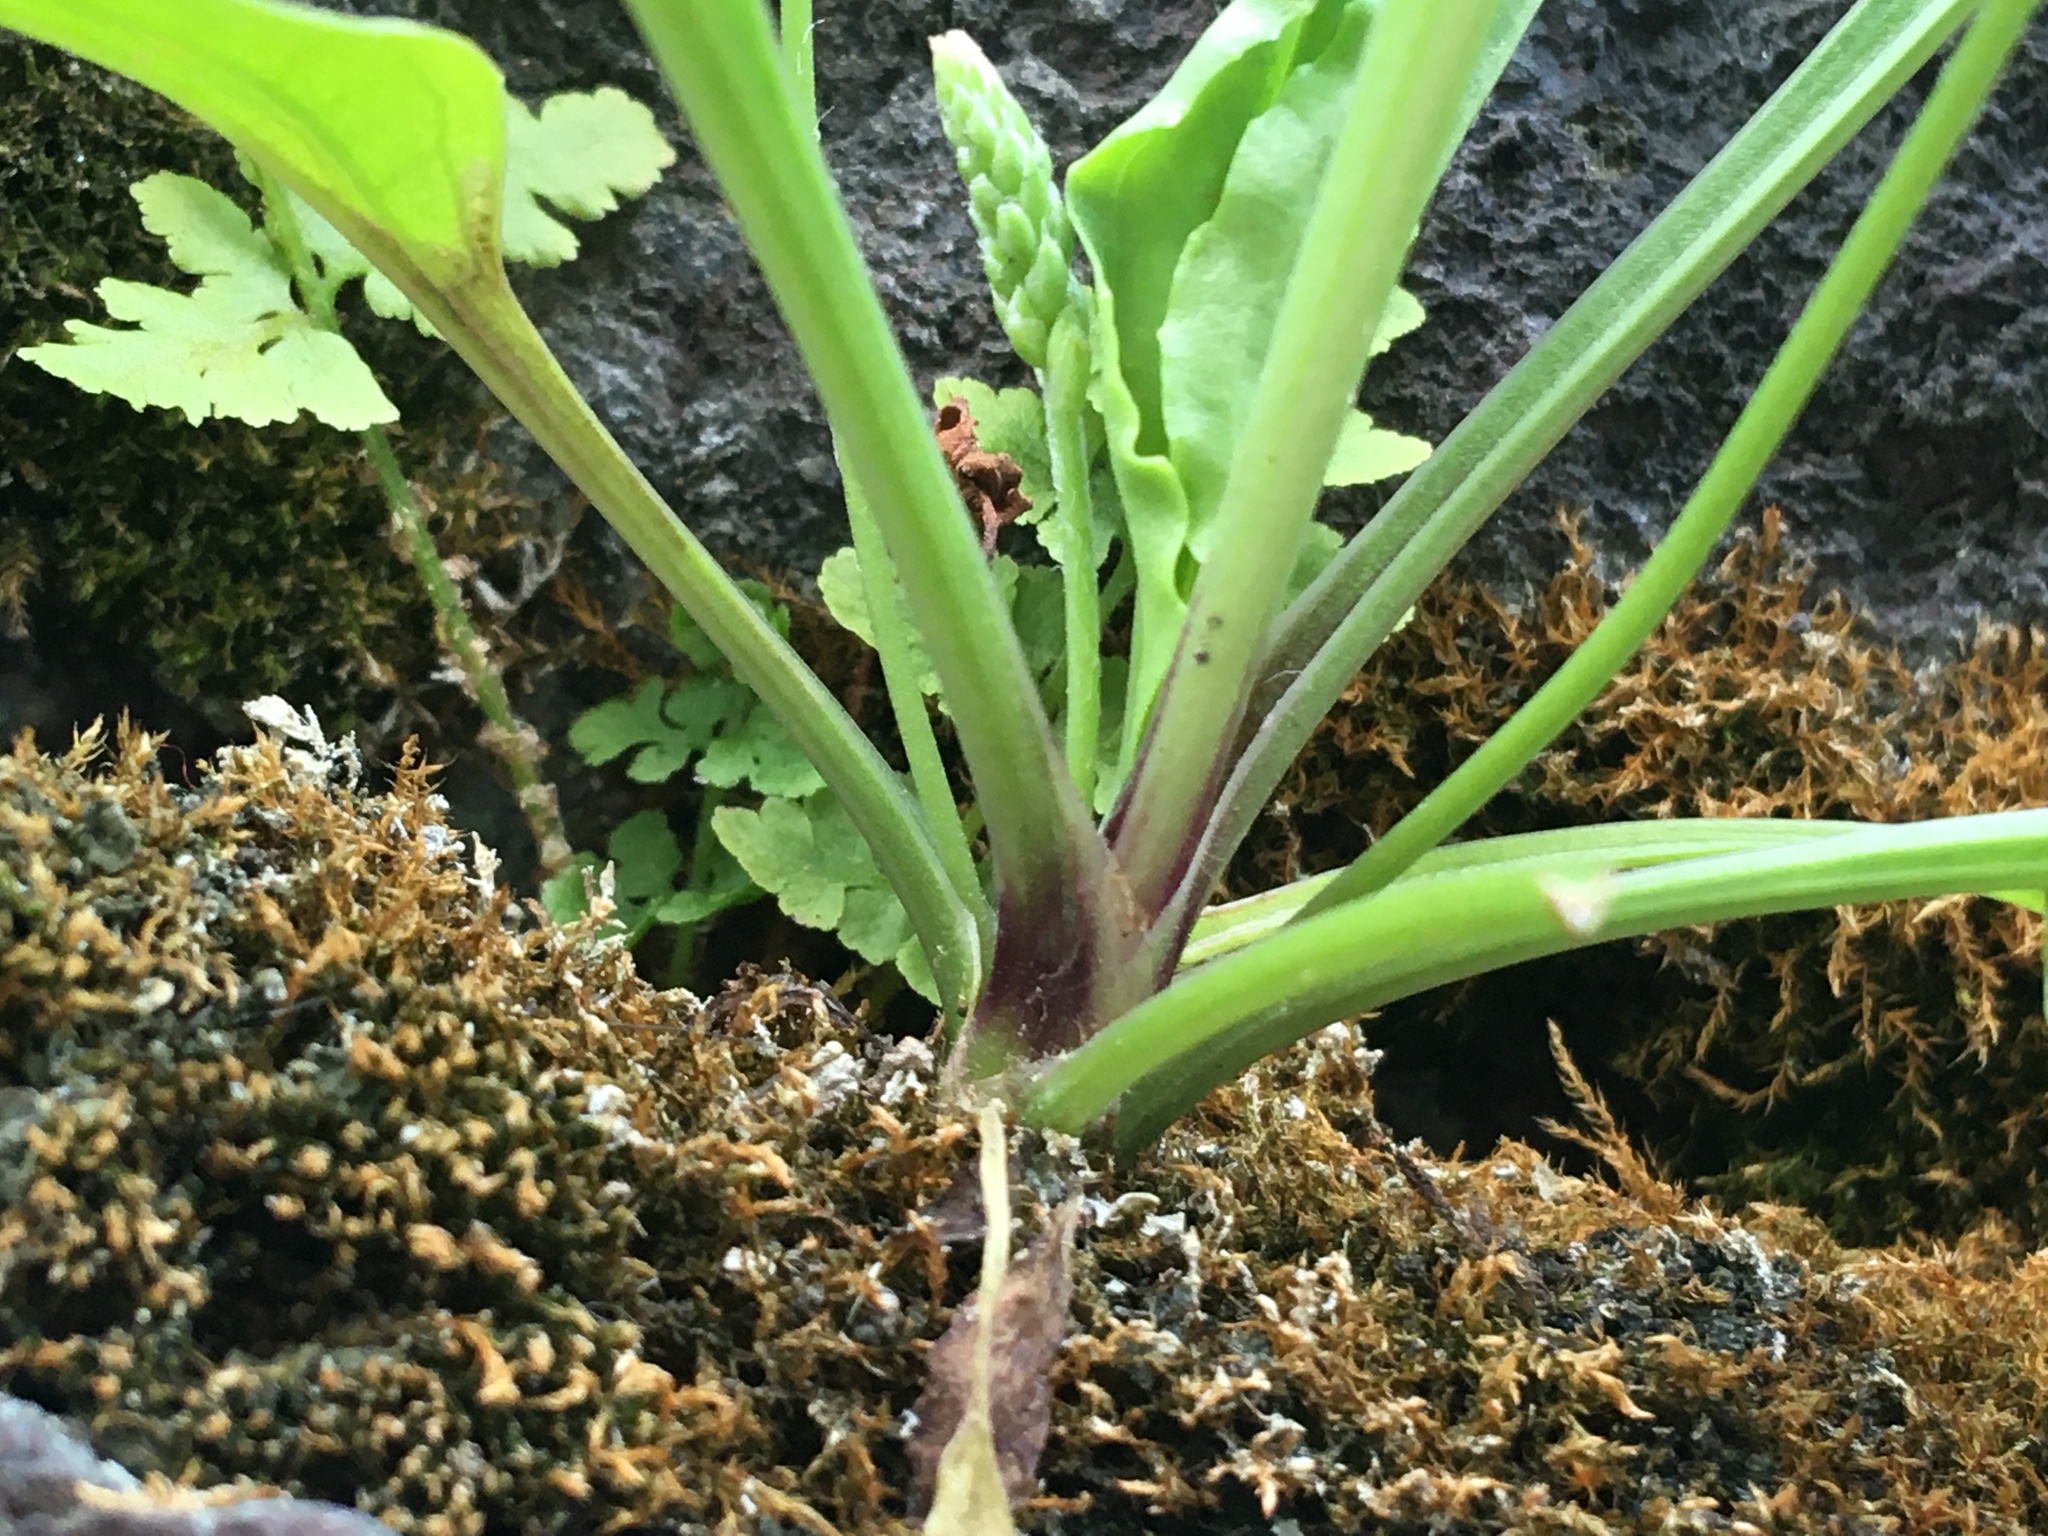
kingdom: Plantae
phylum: Tracheophyta
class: Magnoliopsida
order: Lamiales
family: Plantaginaceae
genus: Plantago
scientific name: Plantago rugelii
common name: American plantain
